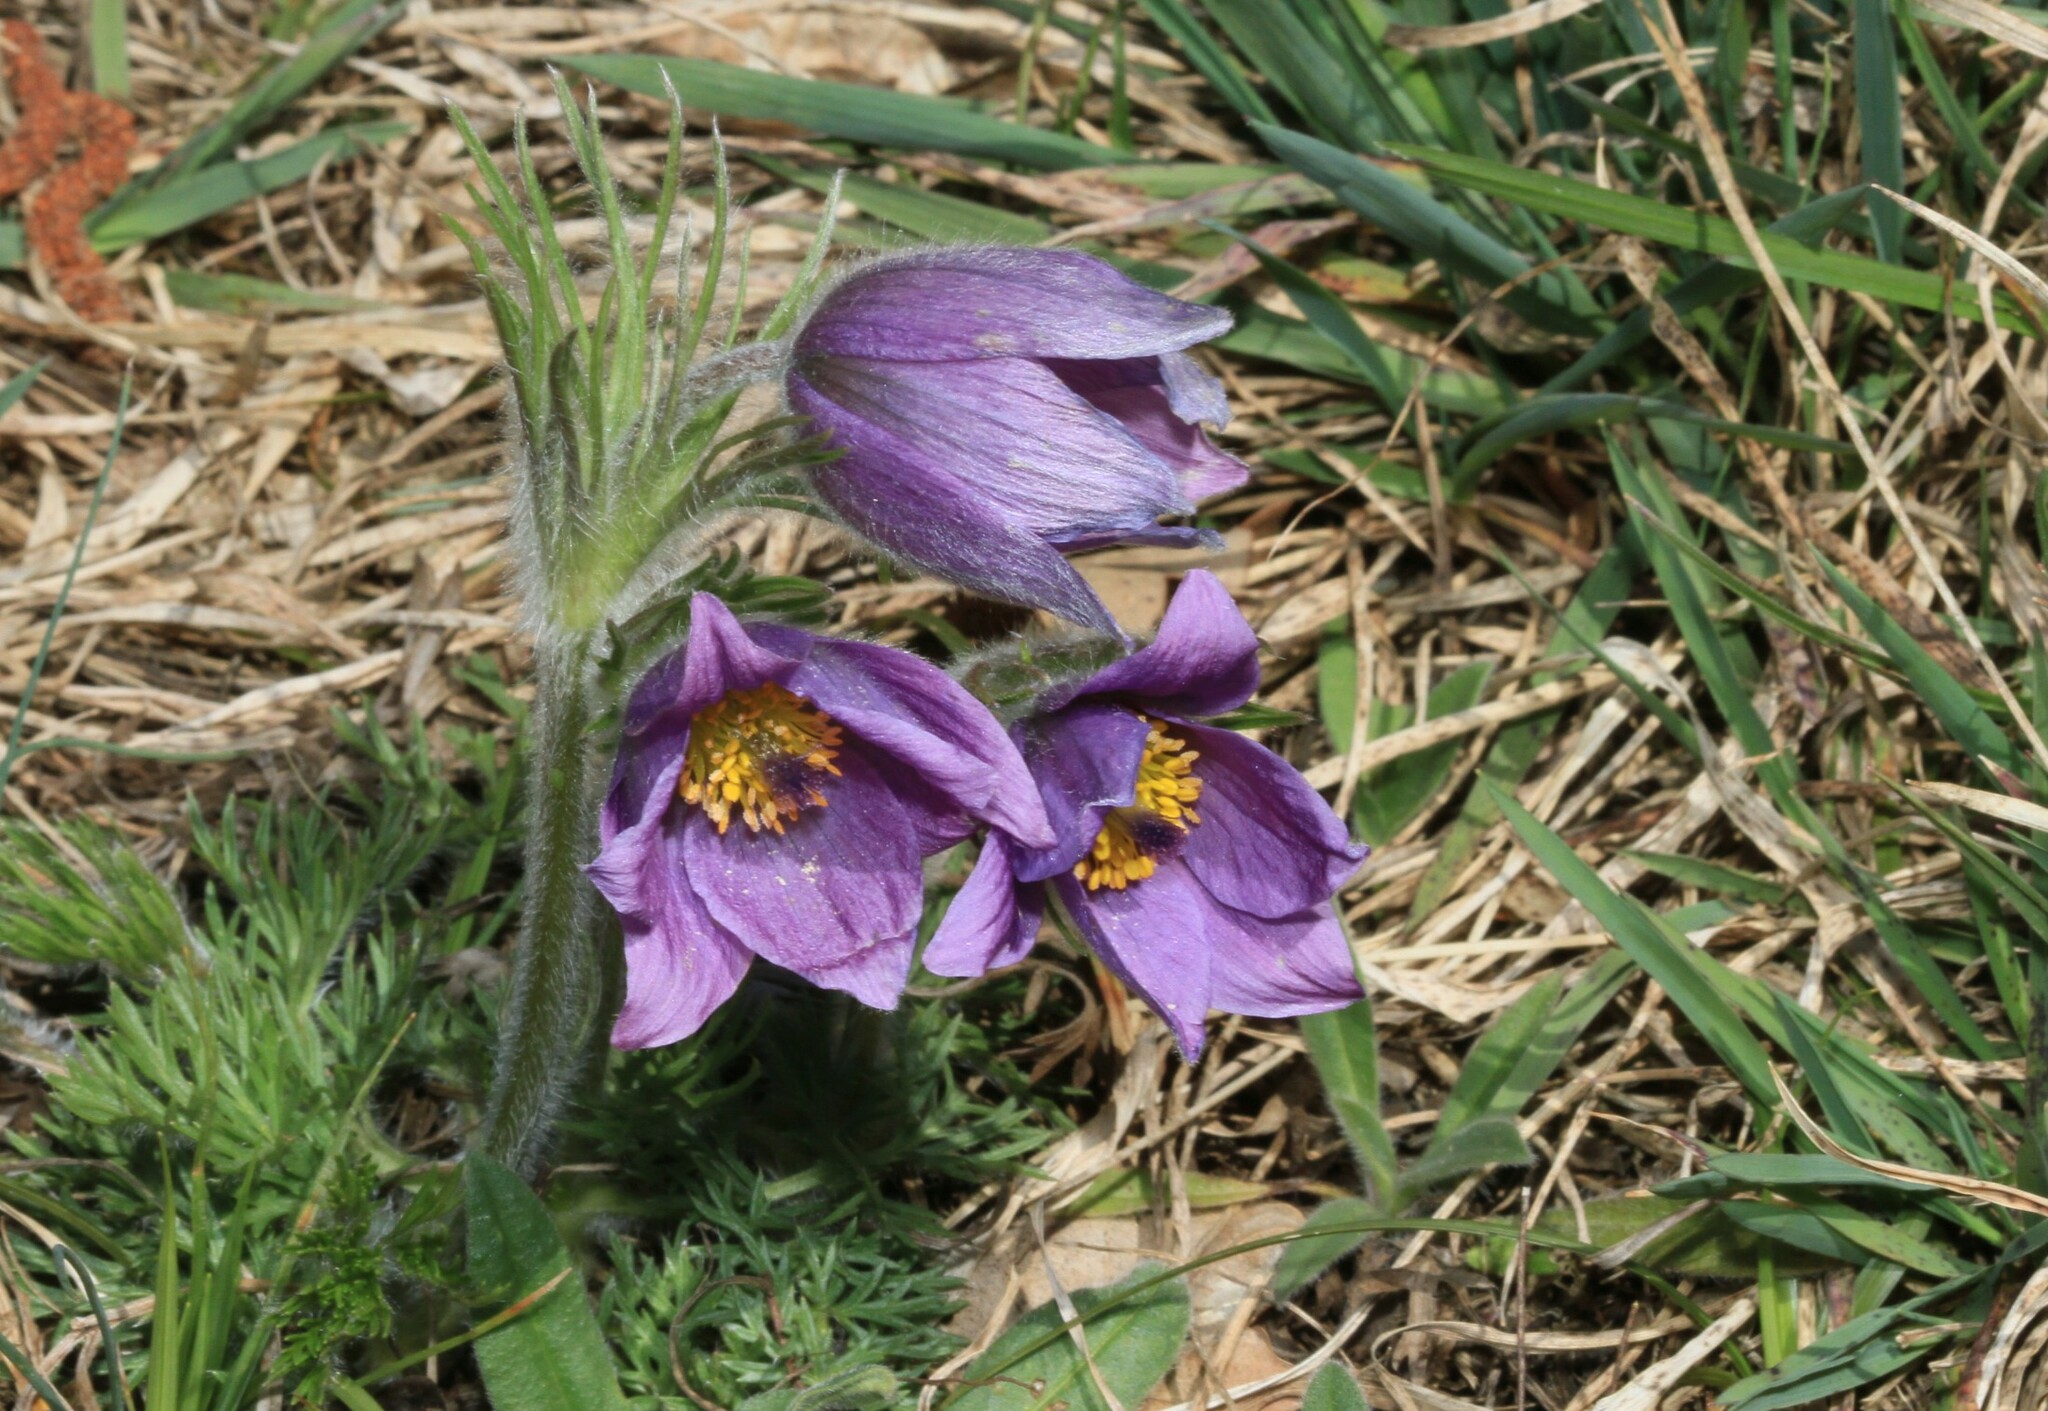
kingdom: Plantae
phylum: Tracheophyta
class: Magnoliopsida
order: Ranunculales
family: Ranunculaceae
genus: Pulsatilla
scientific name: Pulsatilla vulgaris
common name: Pasqueflower
